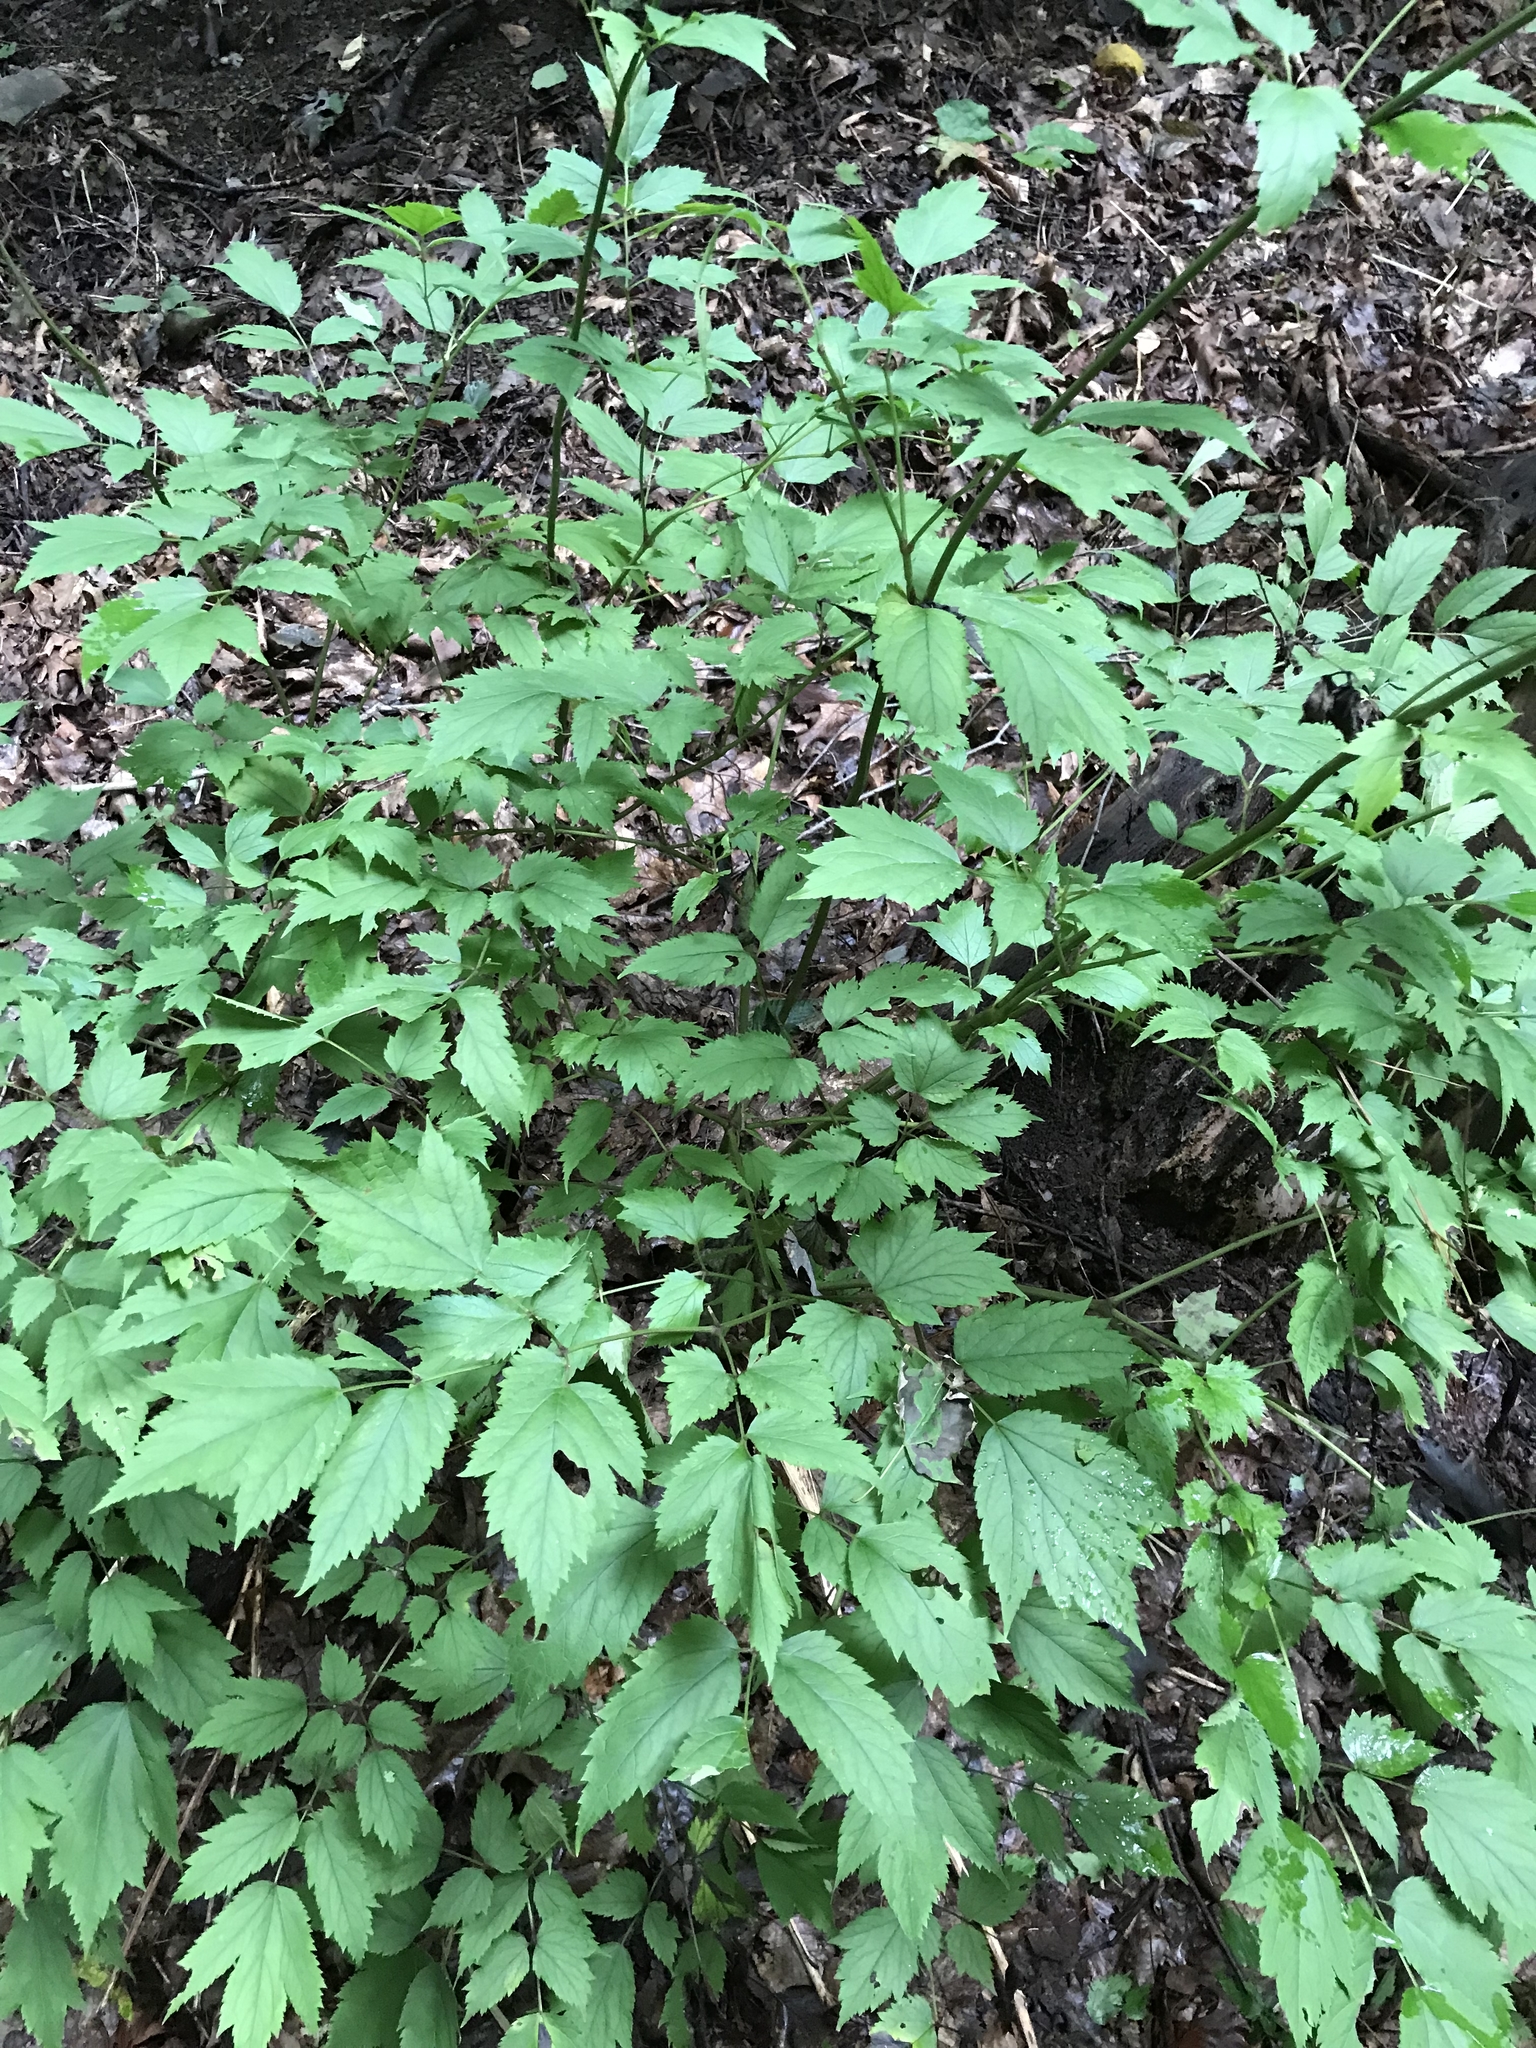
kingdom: Plantae
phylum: Tracheophyta
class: Magnoliopsida
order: Ranunculales
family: Ranunculaceae
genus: Actaea
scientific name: Actaea racemosa
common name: Black cohosh
